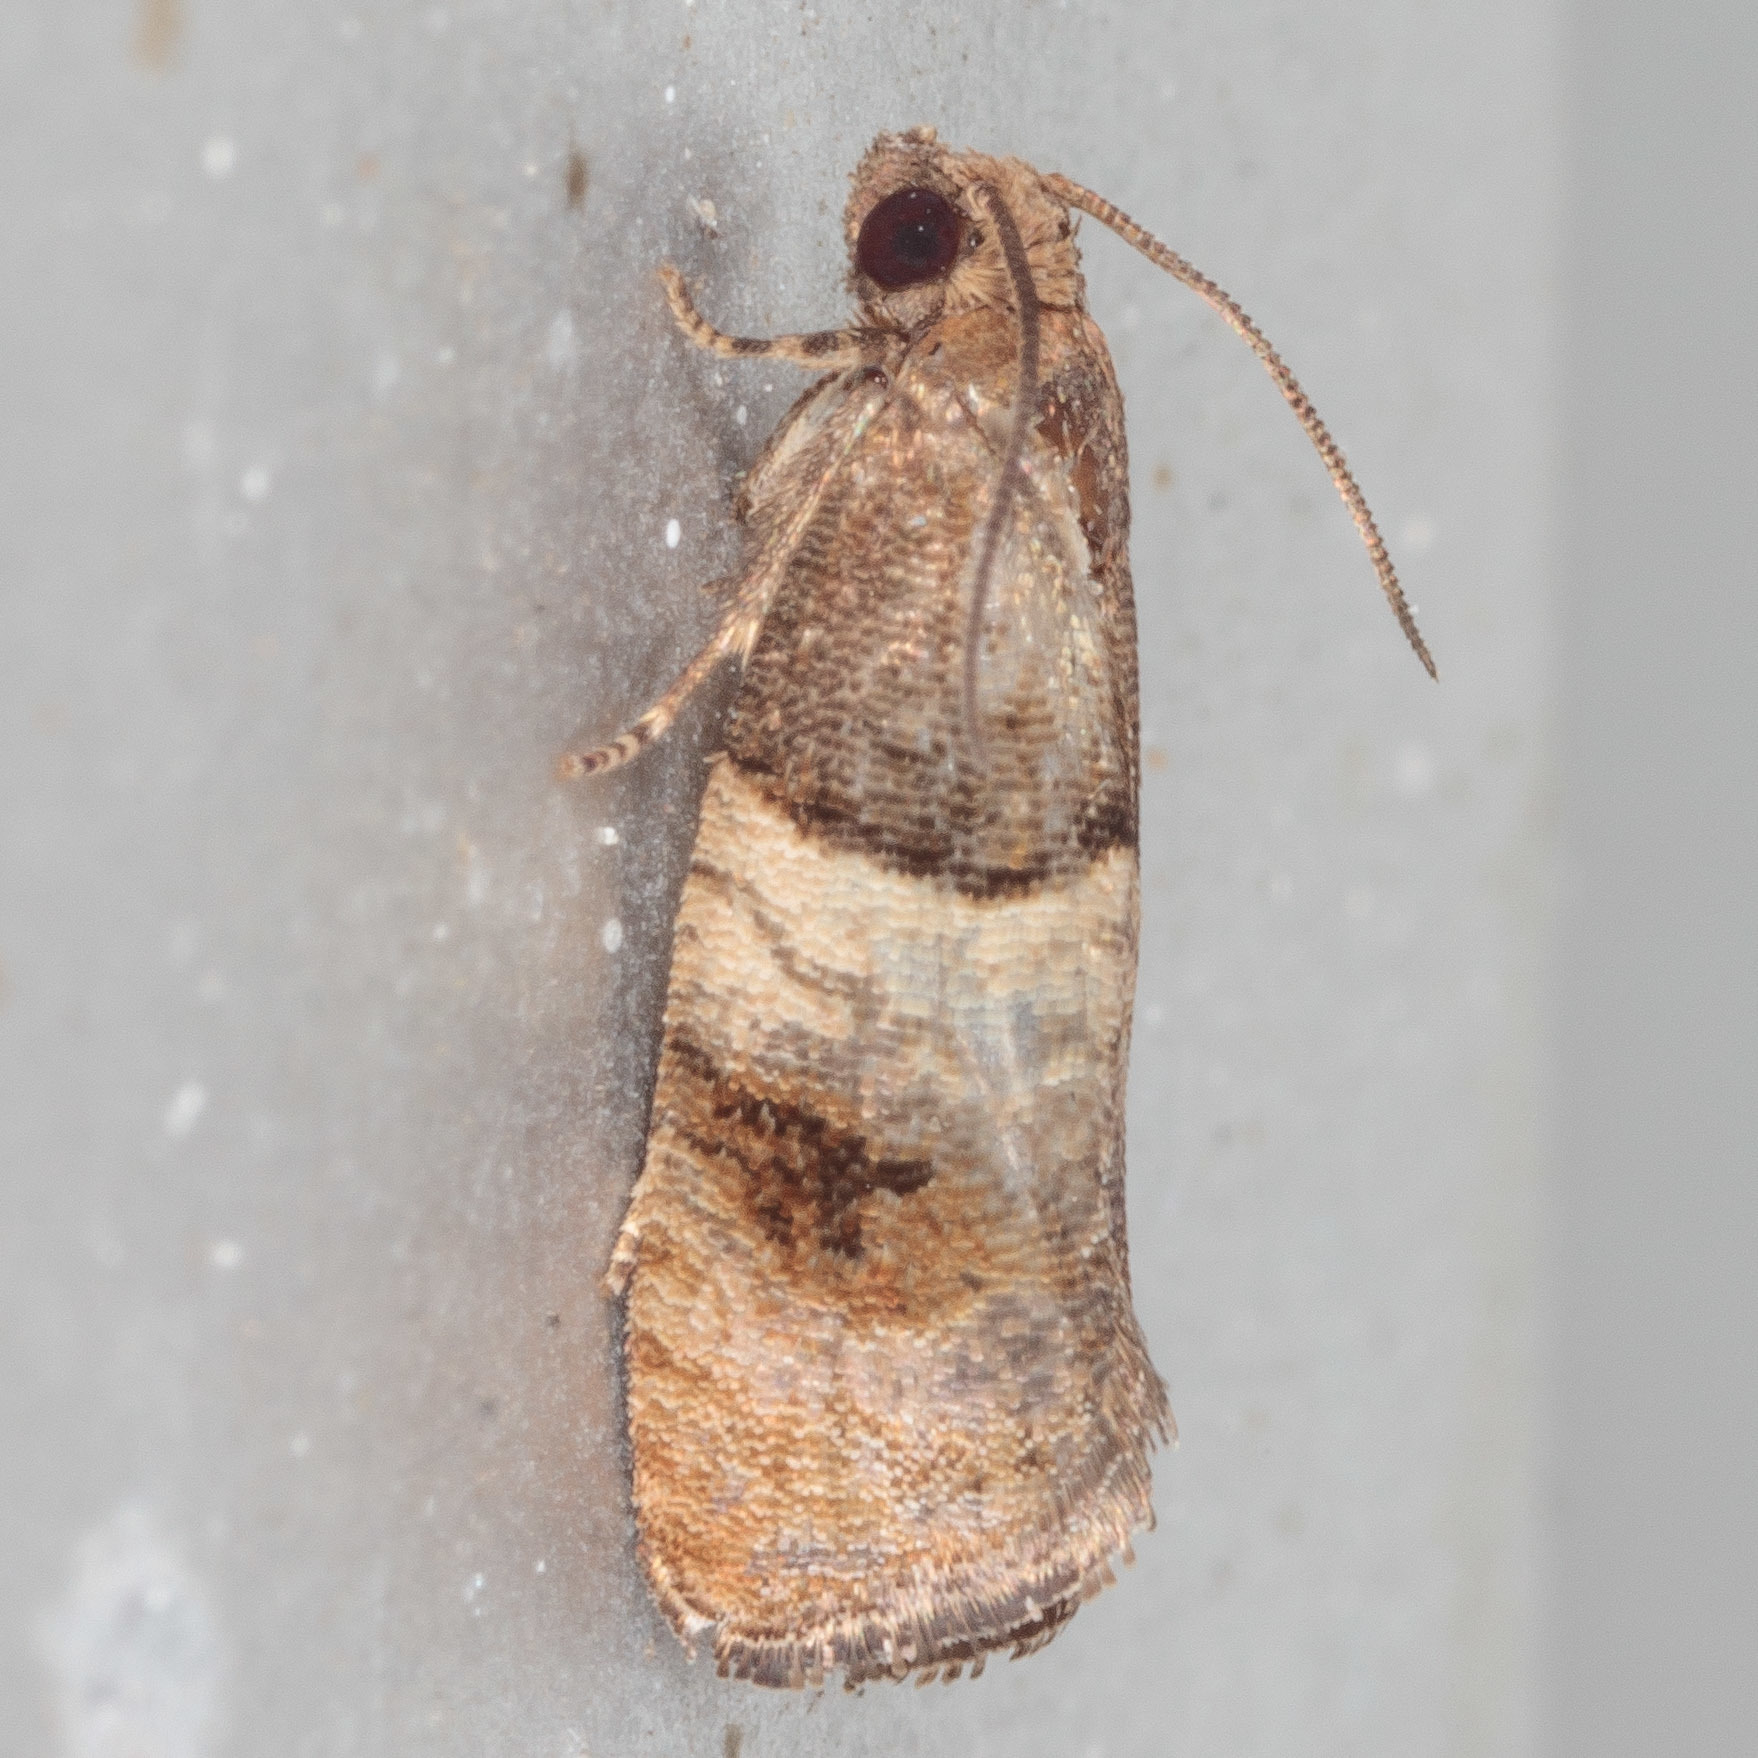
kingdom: Animalia
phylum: Arthropoda
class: Insecta
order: Lepidoptera
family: Tortricidae
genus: Larisa
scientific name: Larisa subsolana
